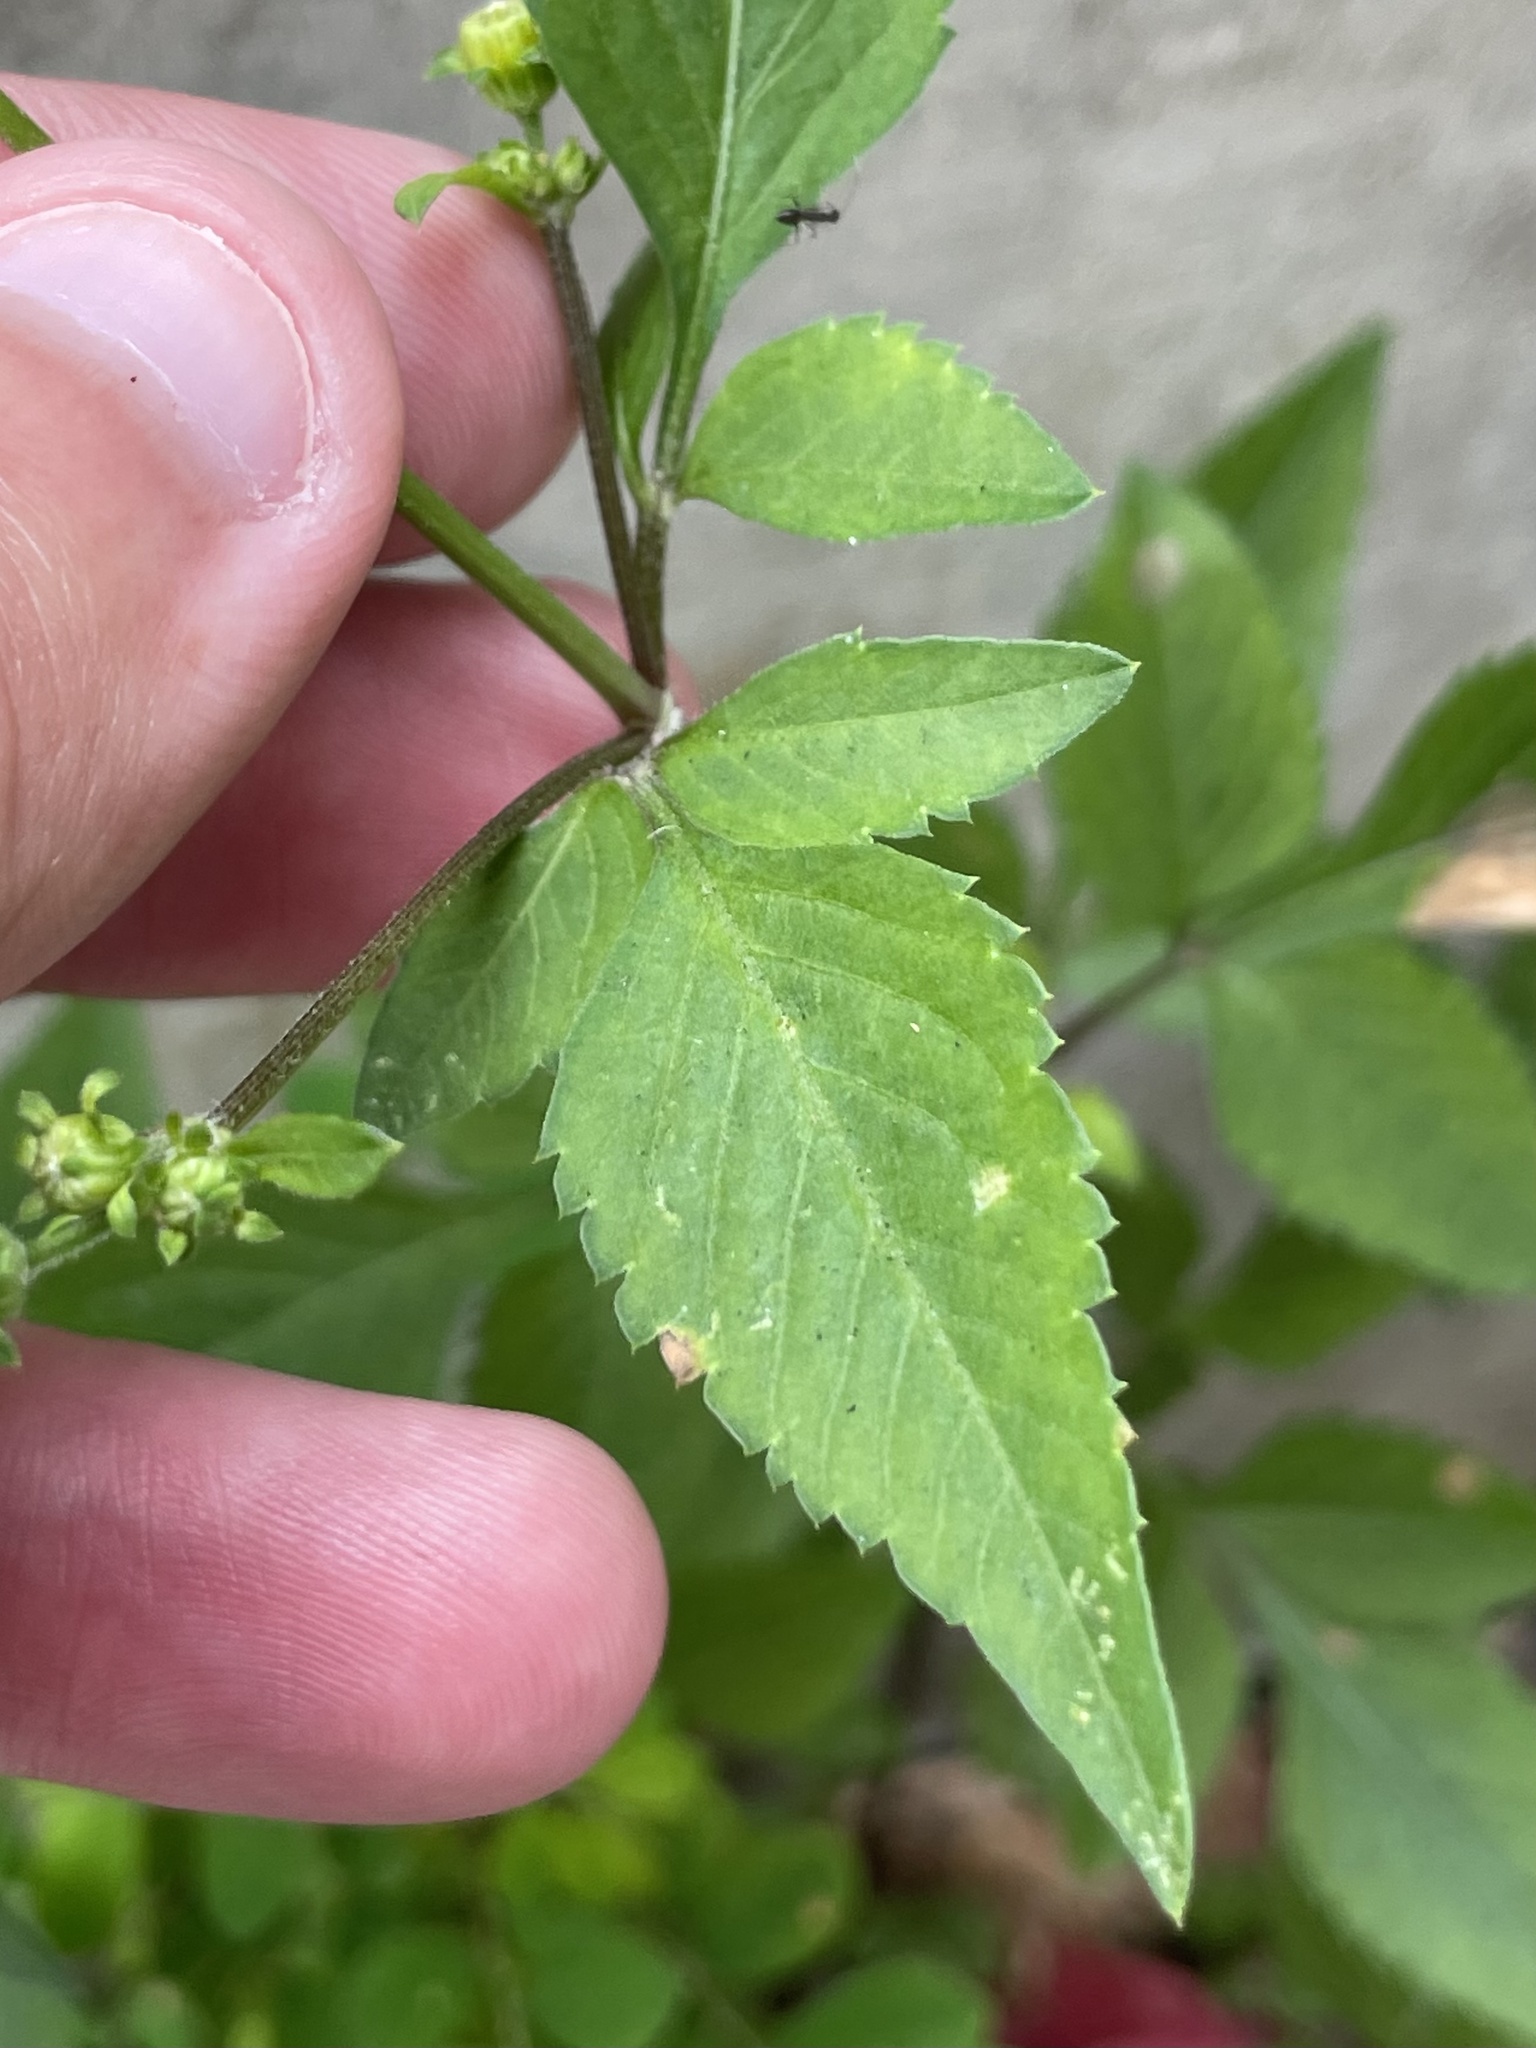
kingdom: Plantae
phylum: Tracheophyta
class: Magnoliopsida
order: Asterales
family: Asteraceae
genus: Bidens
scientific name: Bidens alba
